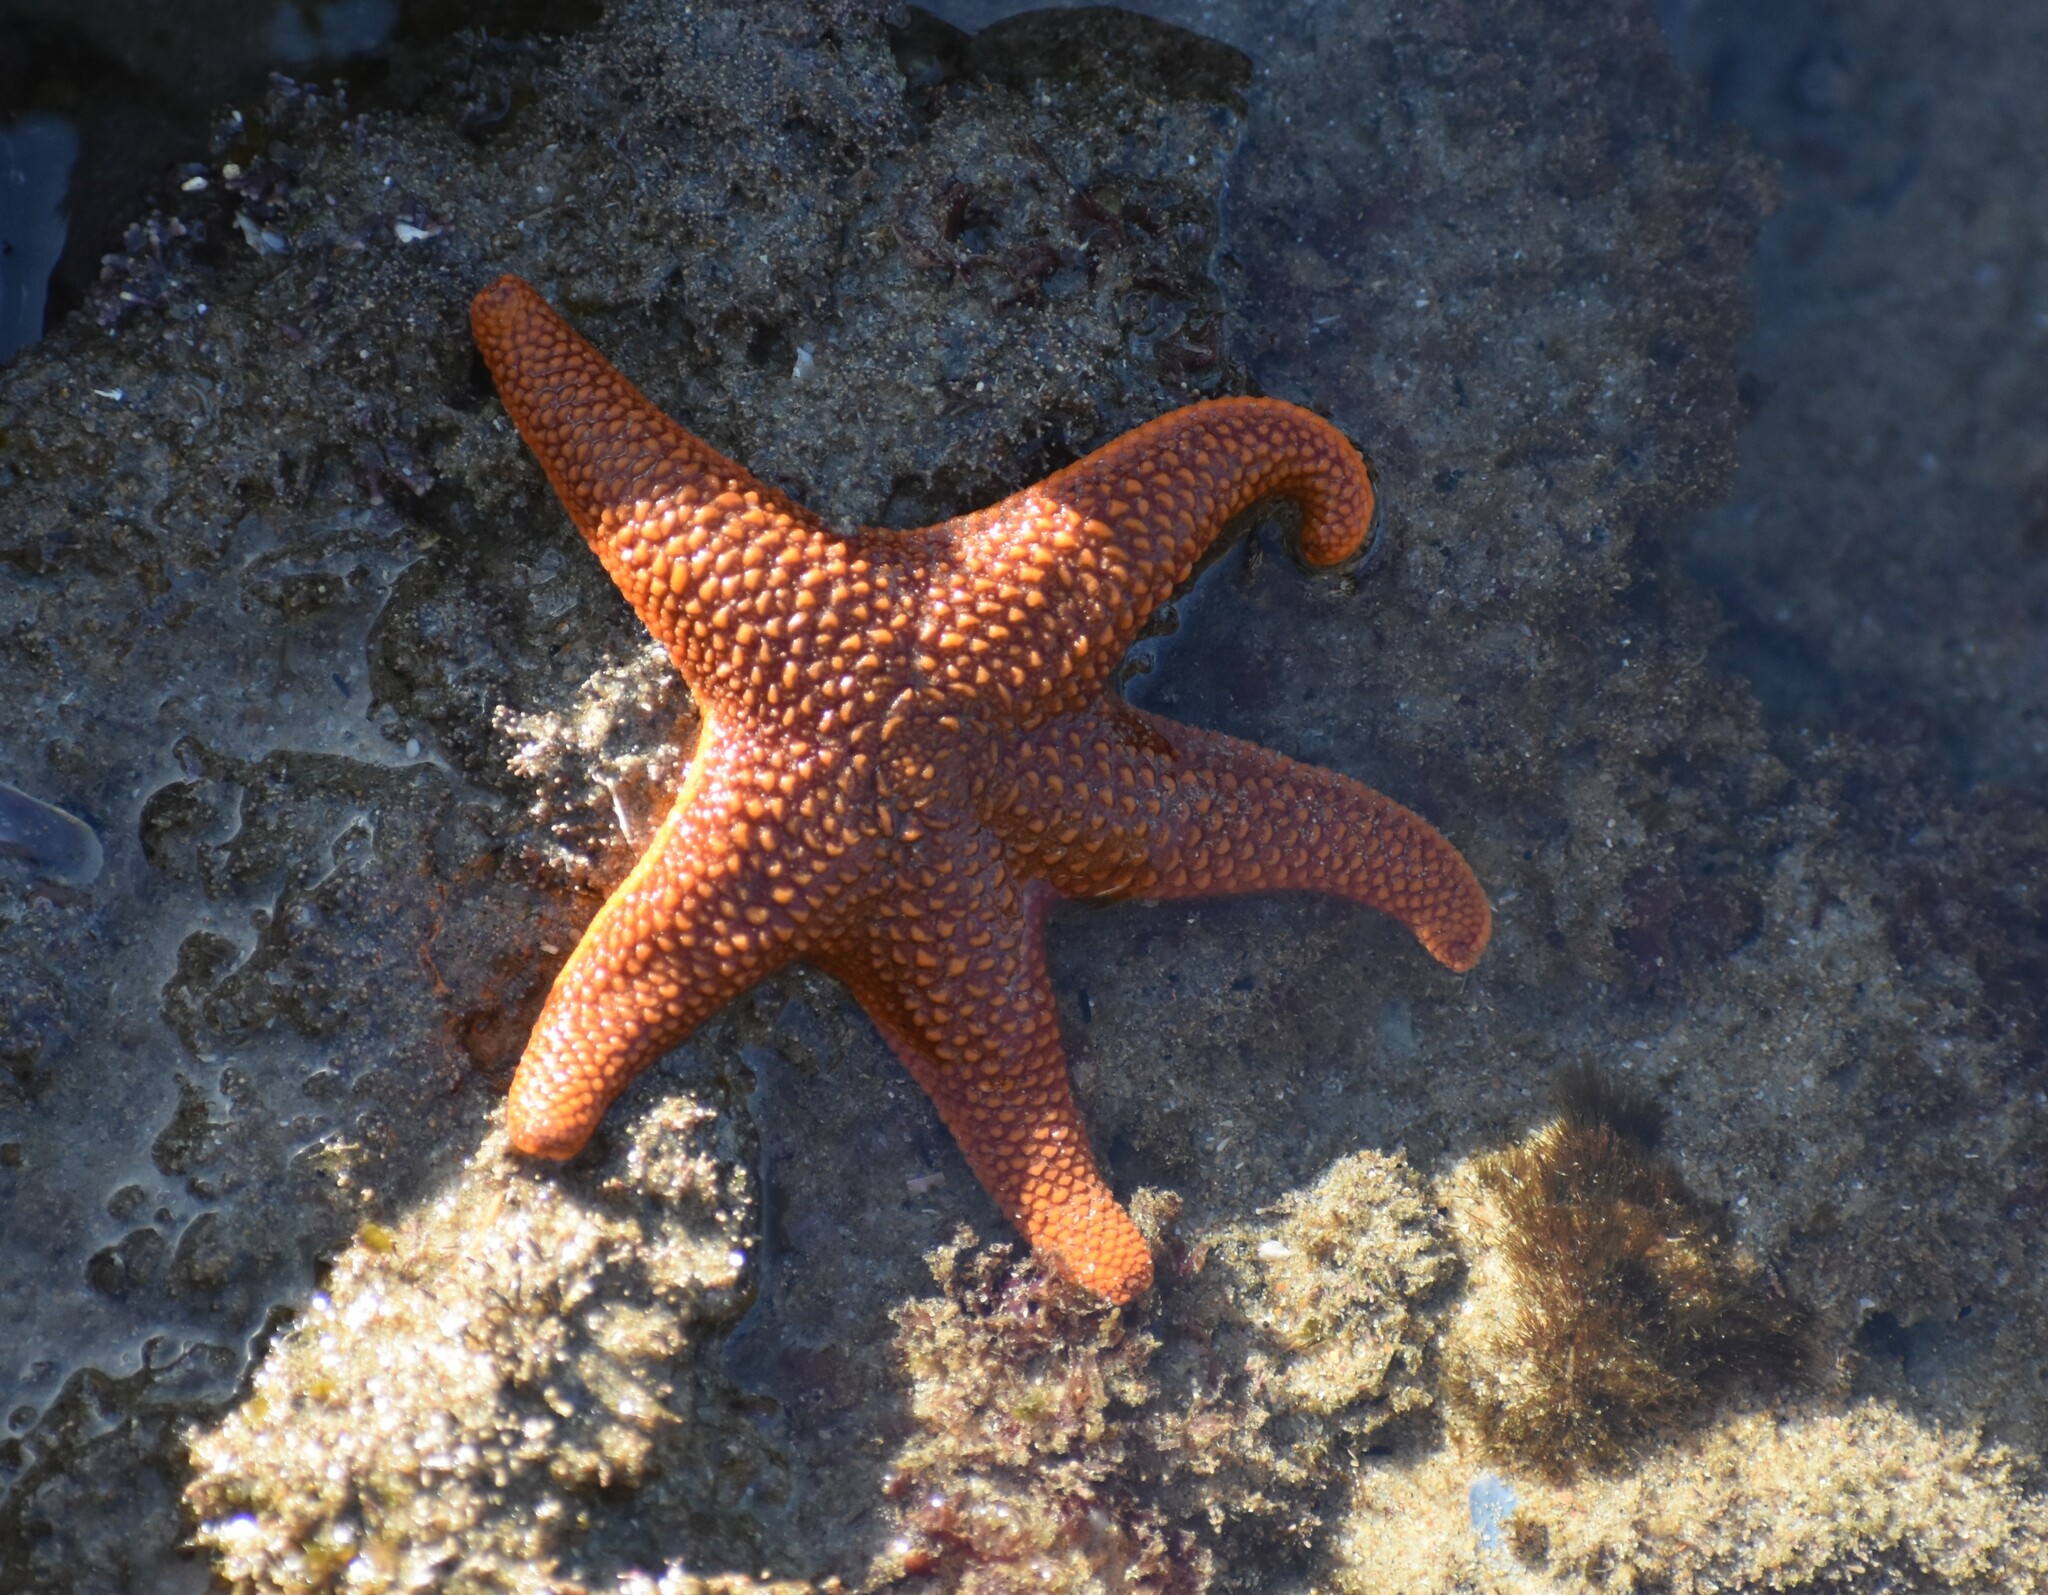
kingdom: Animalia
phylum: Echinodermata
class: Asteroidea
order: Valvatida
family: Asterinidae
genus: Callopatiria
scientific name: Callopatiria granifera
